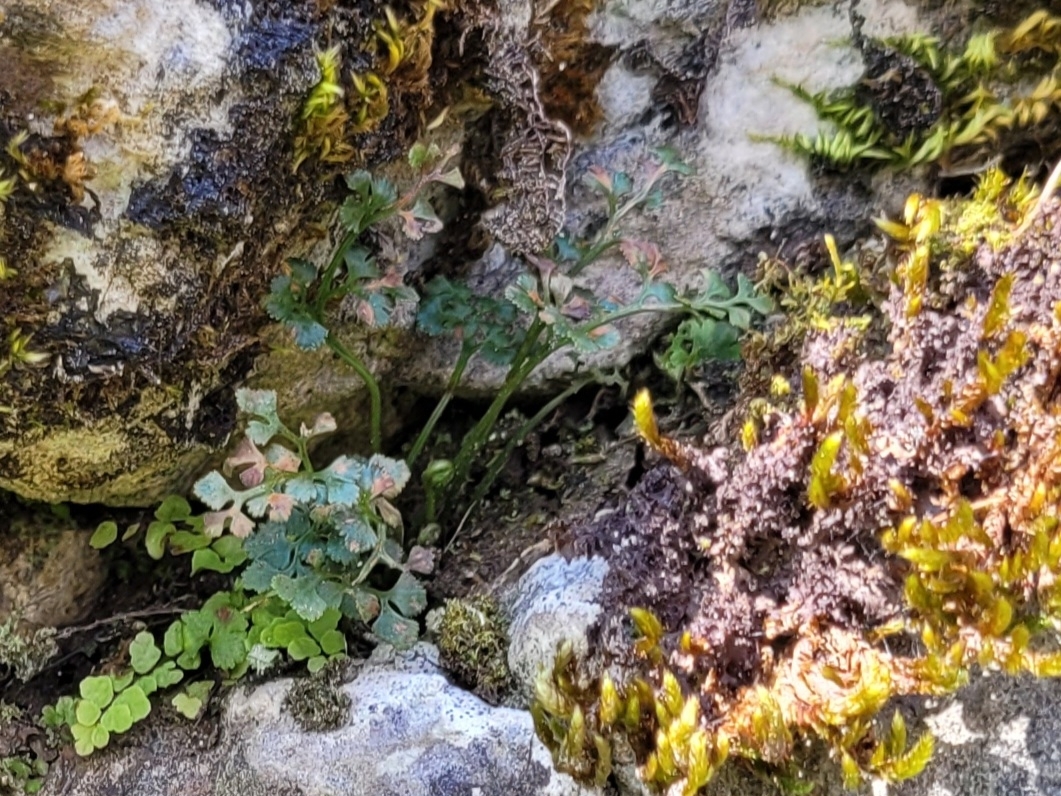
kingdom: Plantae
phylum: Tracheophyta
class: Polypodiopsida
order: Polypodiales
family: Aspleniaceae
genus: Asplenium
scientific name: Asplenium ruta-muraria
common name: Wall-rue
